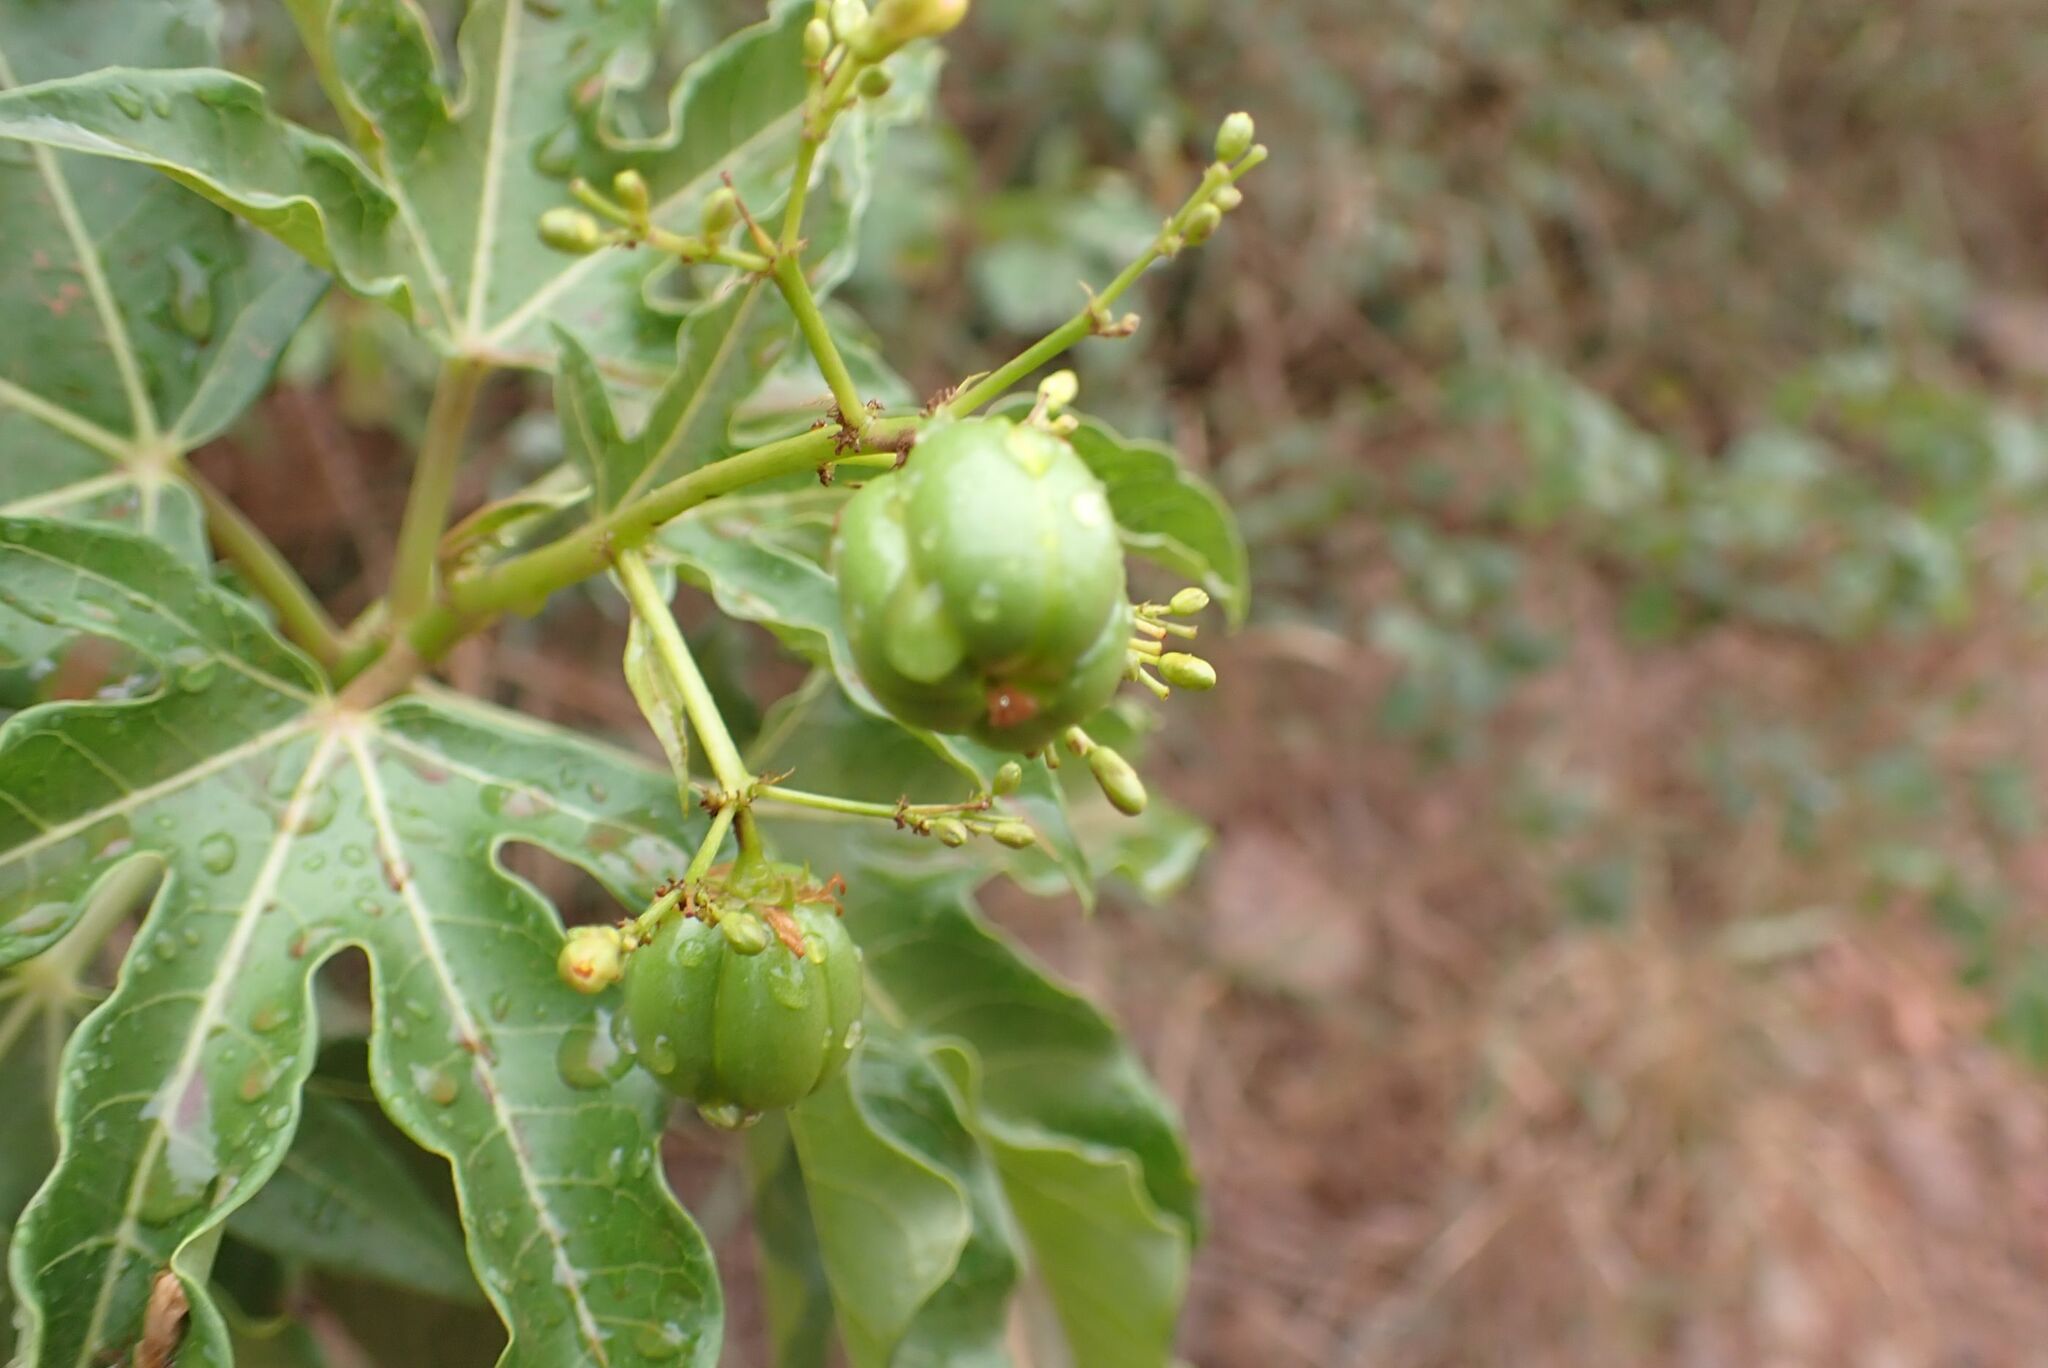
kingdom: Plantae
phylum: Tracheophyta
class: Magnoliopsida
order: Malpighiales
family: Euphorbiaceae
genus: Jatropha
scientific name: Jatropha variifolia
